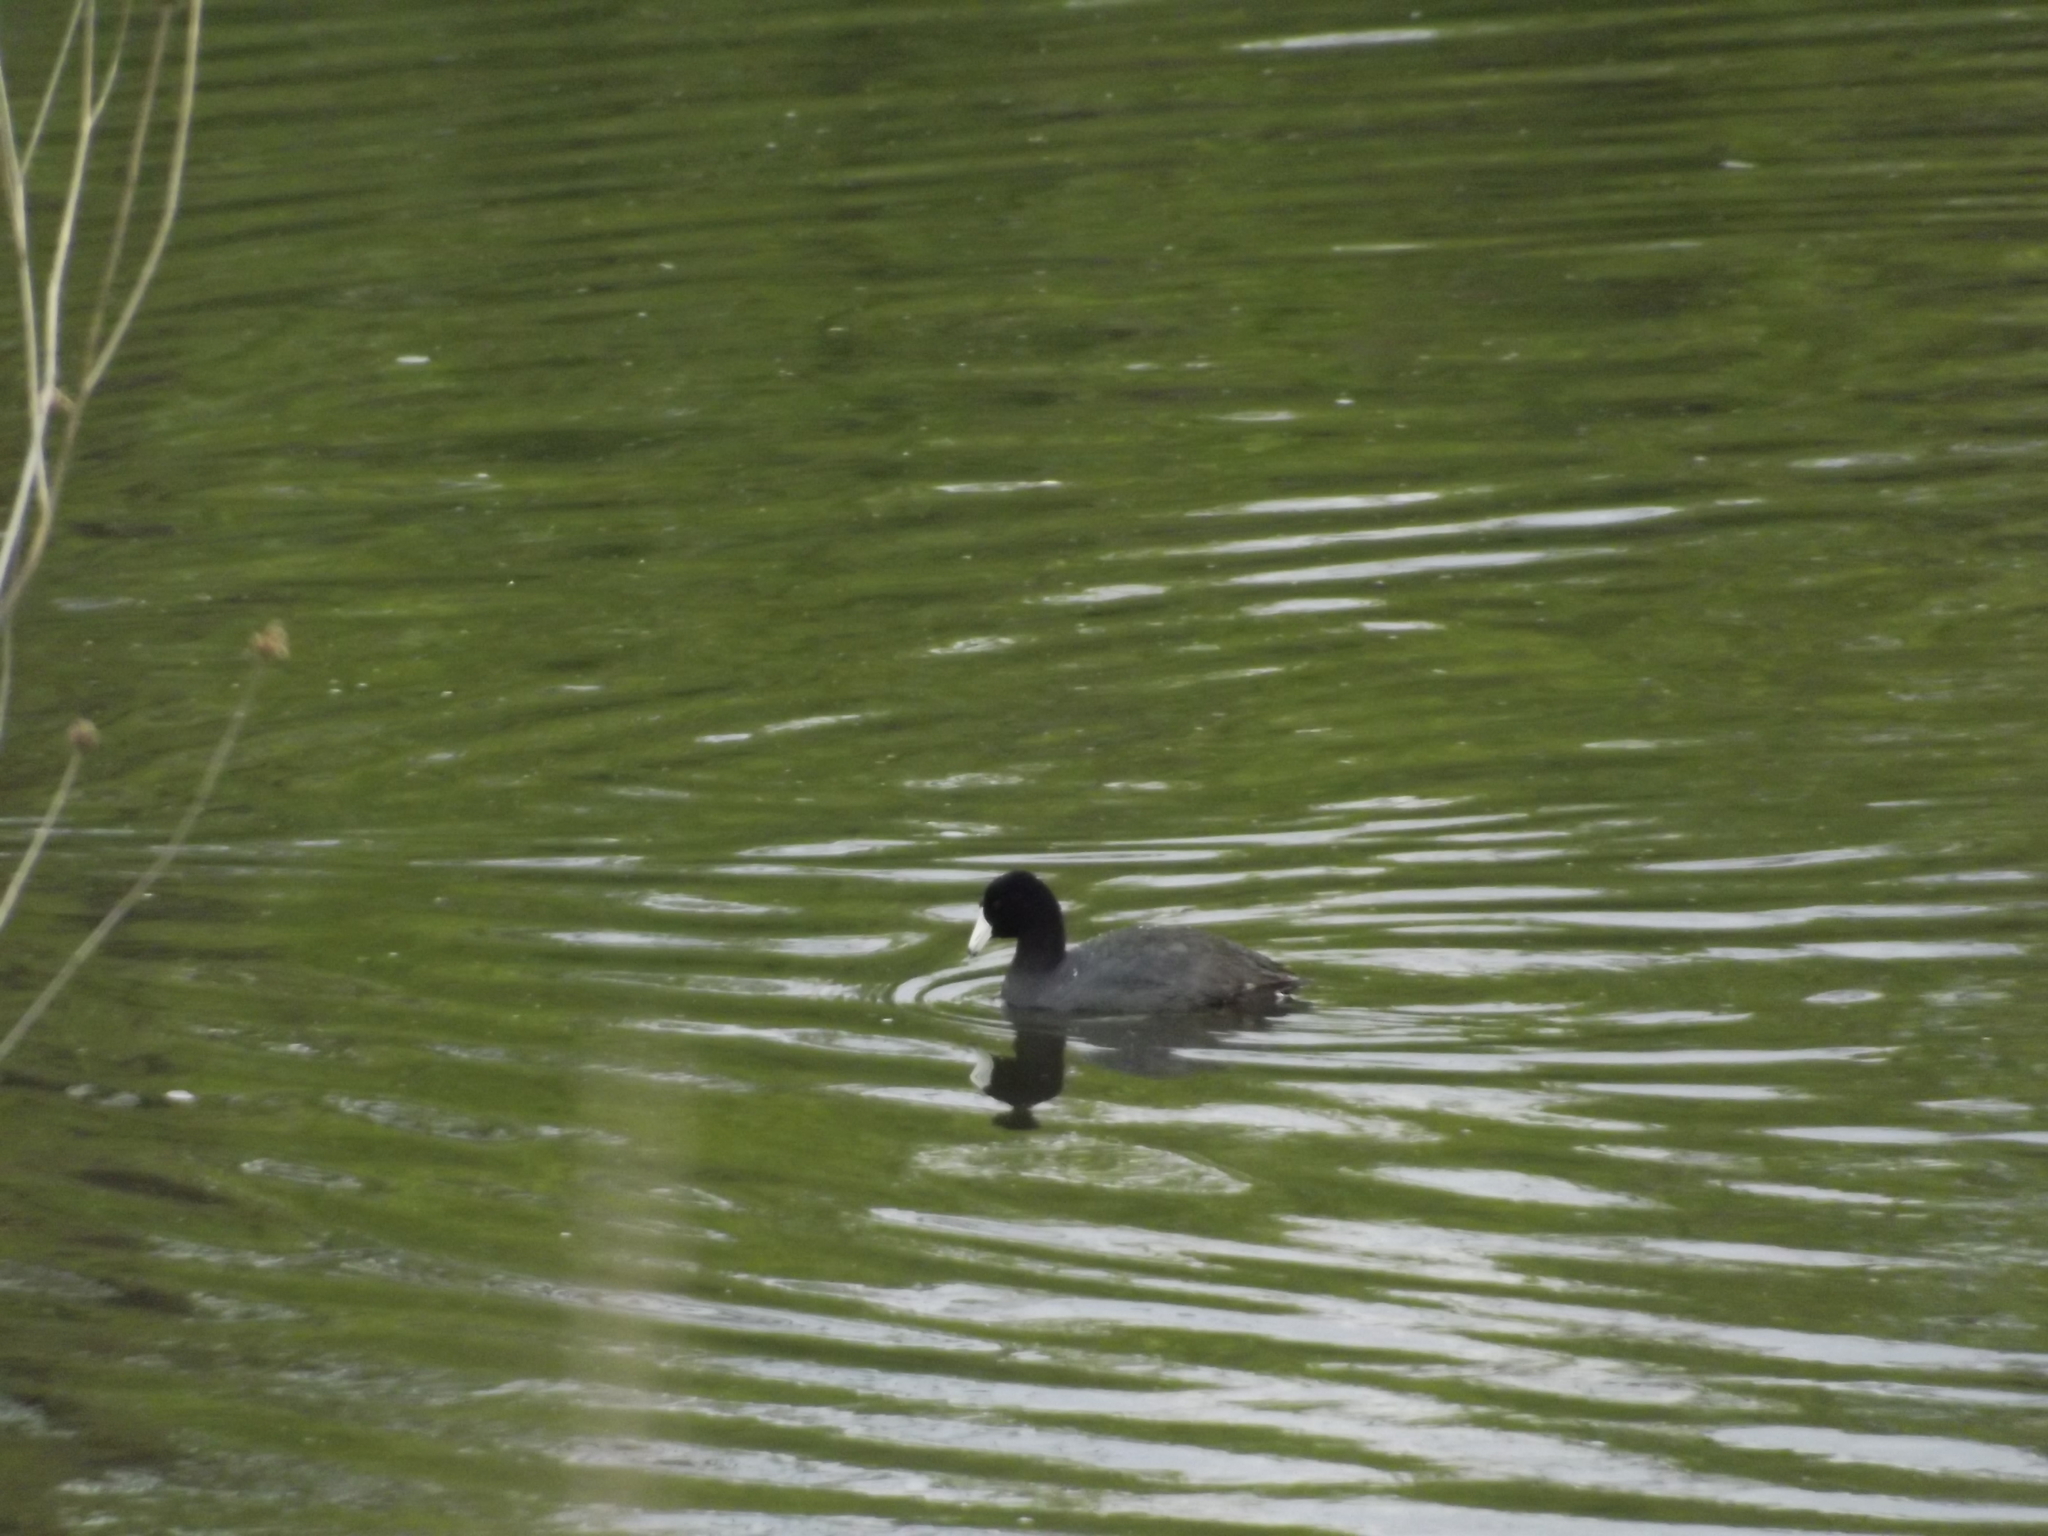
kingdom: Animalia
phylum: Chordata
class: Aves
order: Gruiformes
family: Rallidae
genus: Fulica
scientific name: Fulica americana
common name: American coot
